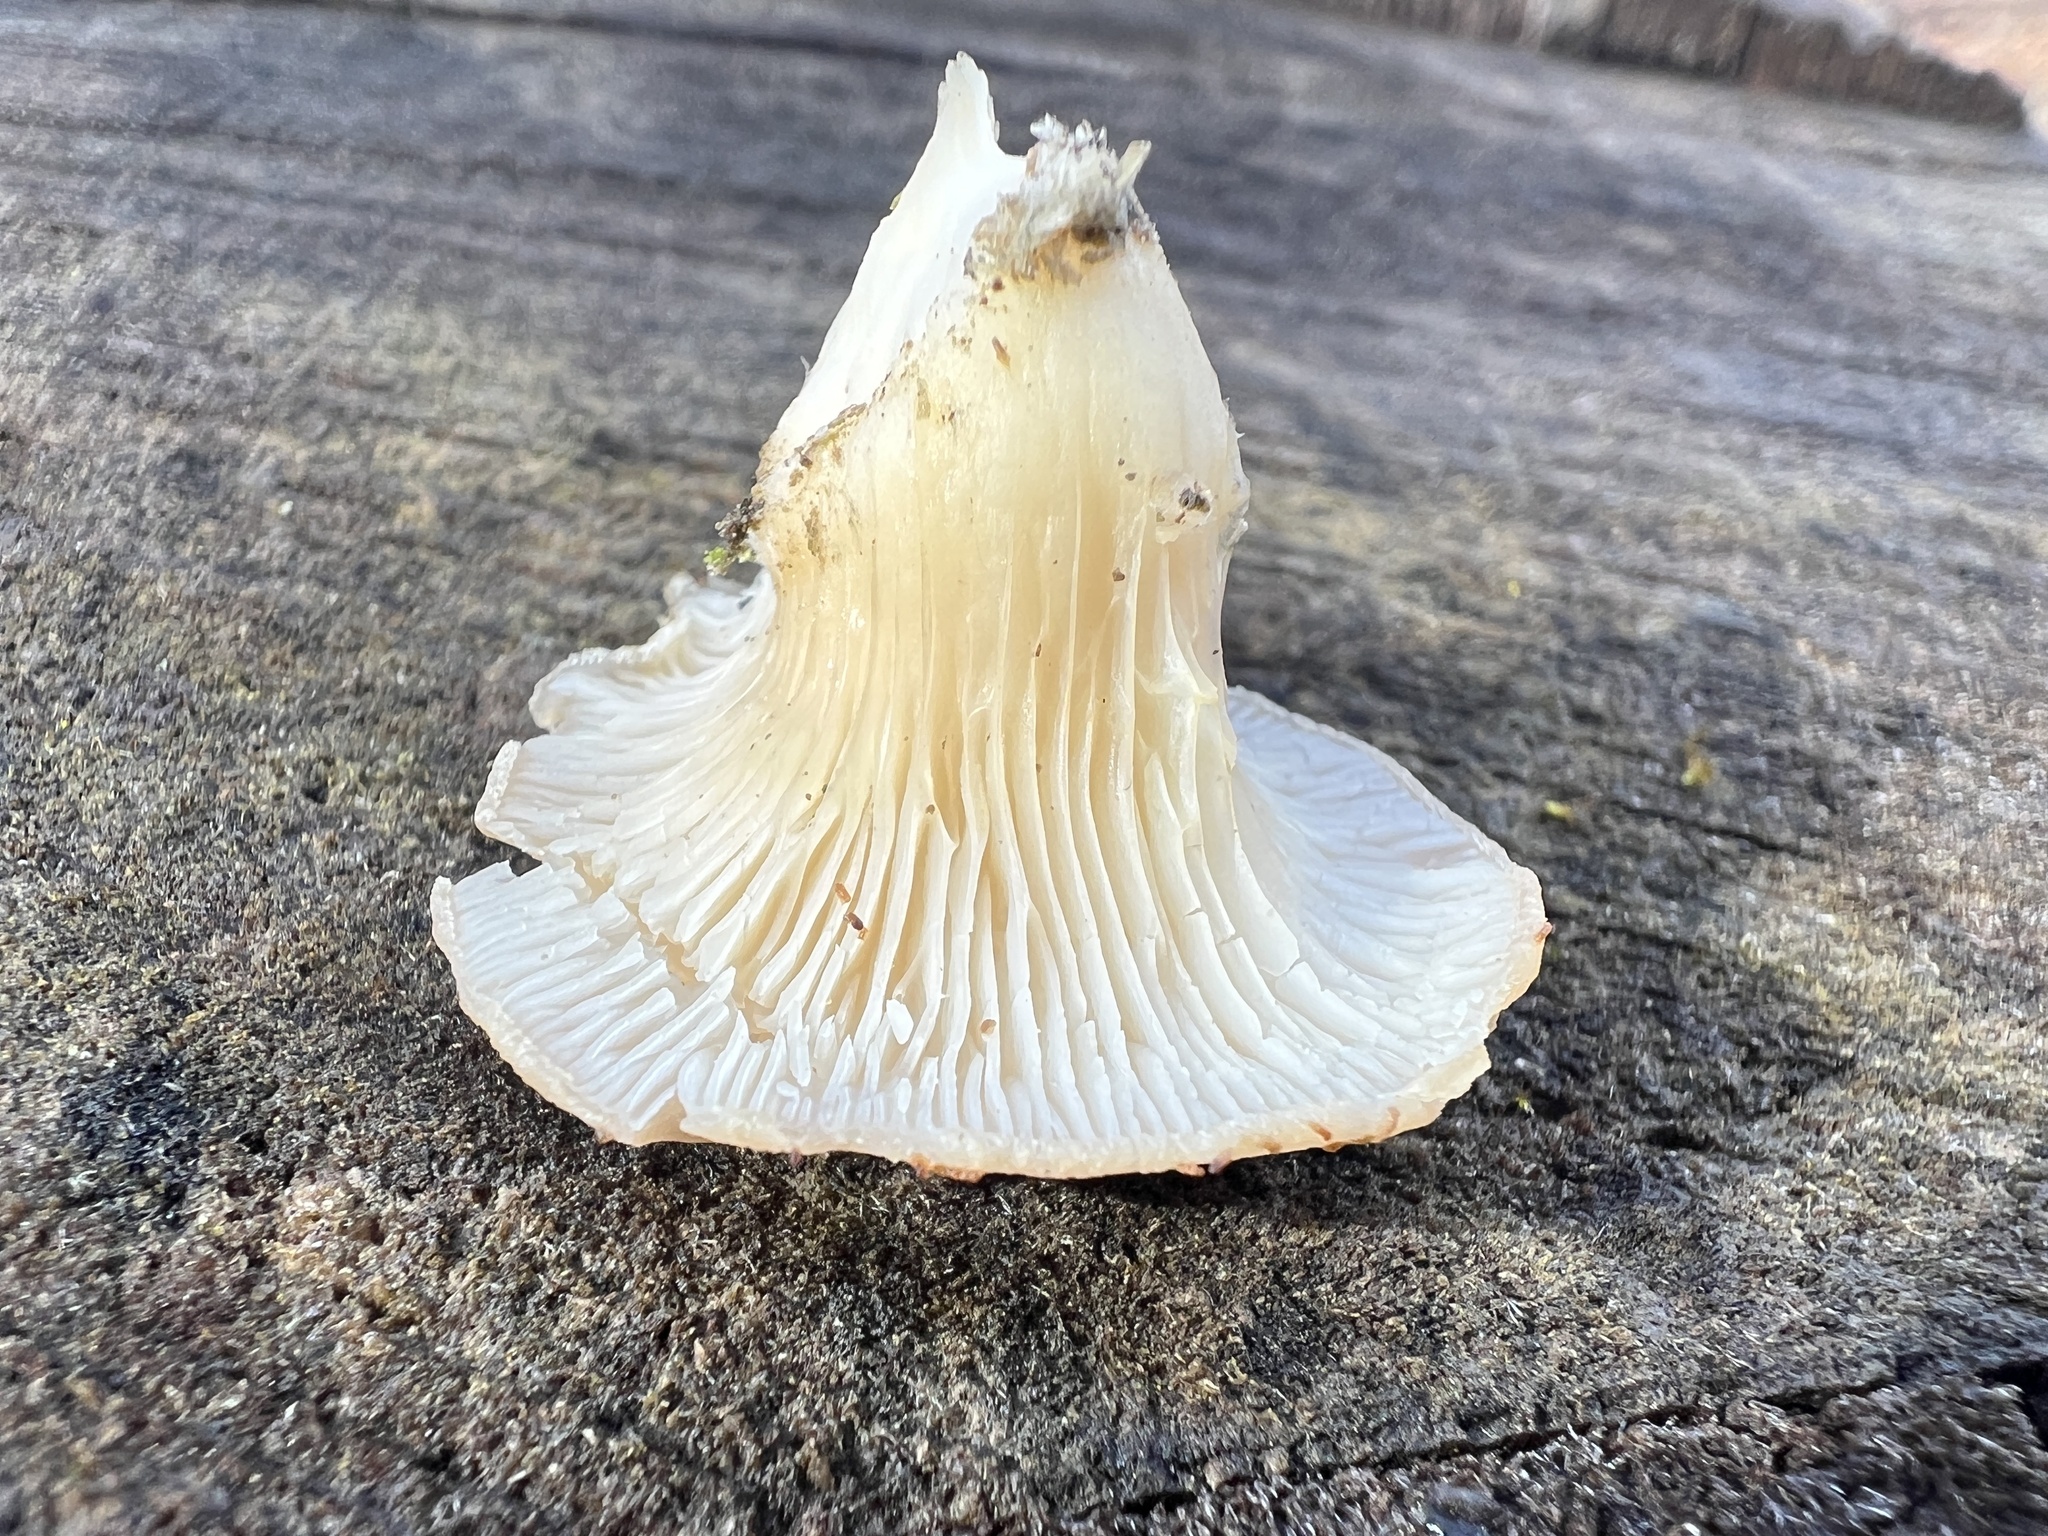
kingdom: Fungi
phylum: Basidiomycota
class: Agaricomycetes
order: Agaricales
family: Pleurotaceae
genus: Pleurotus
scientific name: Pleurotus ostreatus
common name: Oyster mushroom
